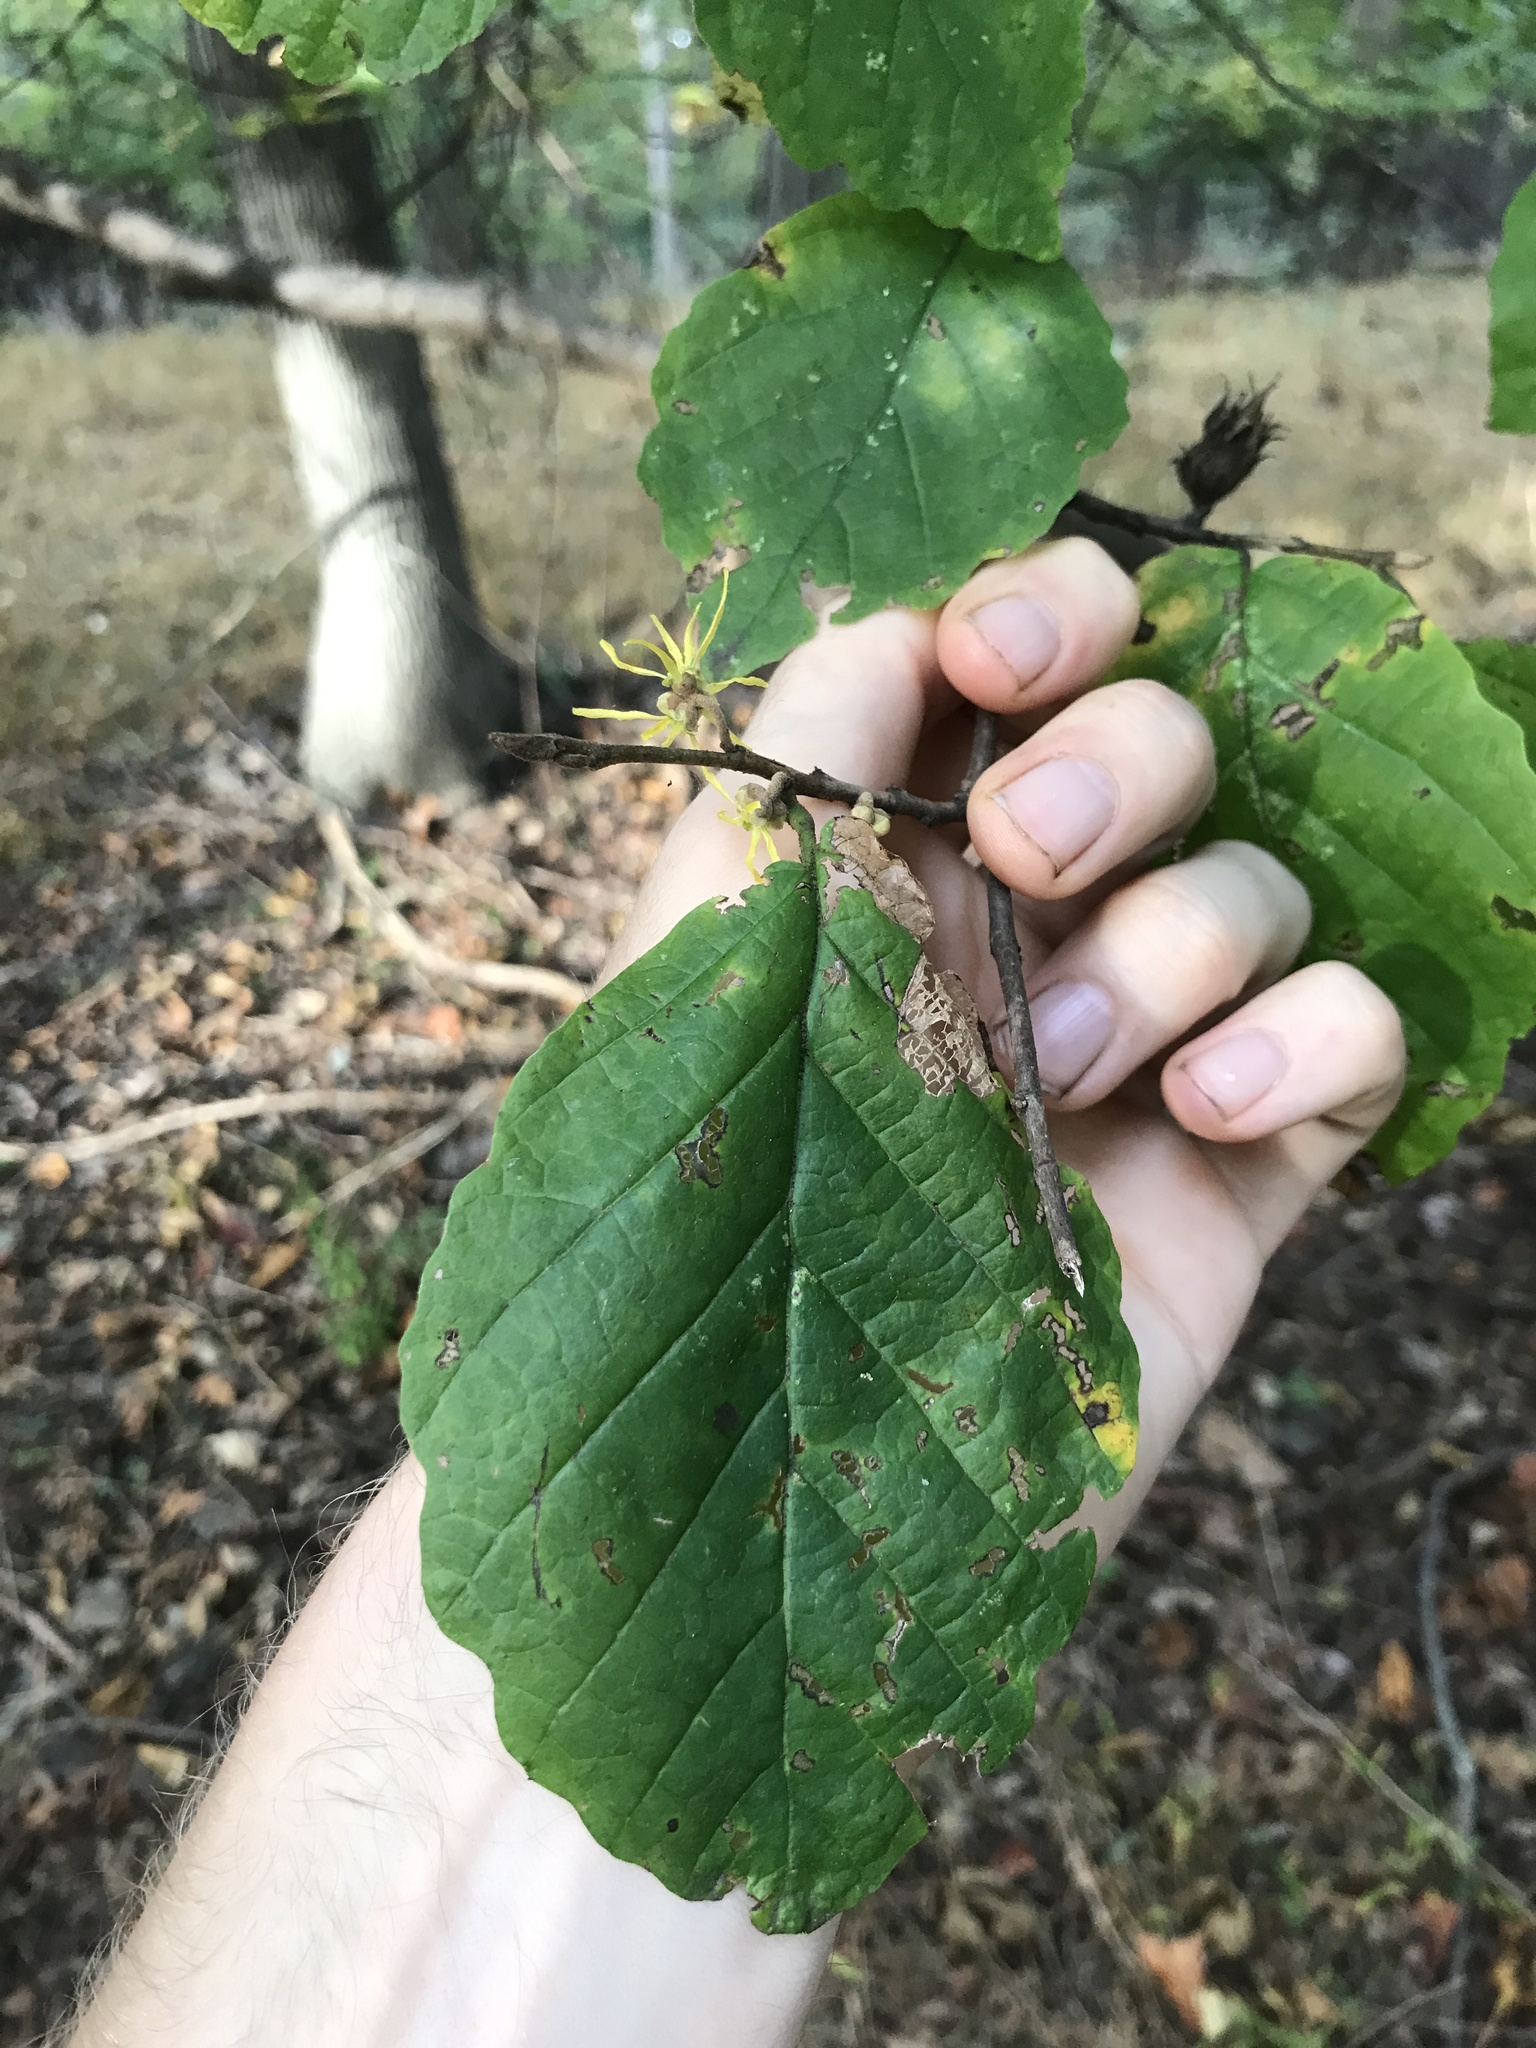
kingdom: Plantae
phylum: Tracheophyta
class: Magnoliopsida
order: Saxifragales
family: Hamamelidaceae
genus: Hamamelis
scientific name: Hamamelis virginiana
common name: Witch-hazel
